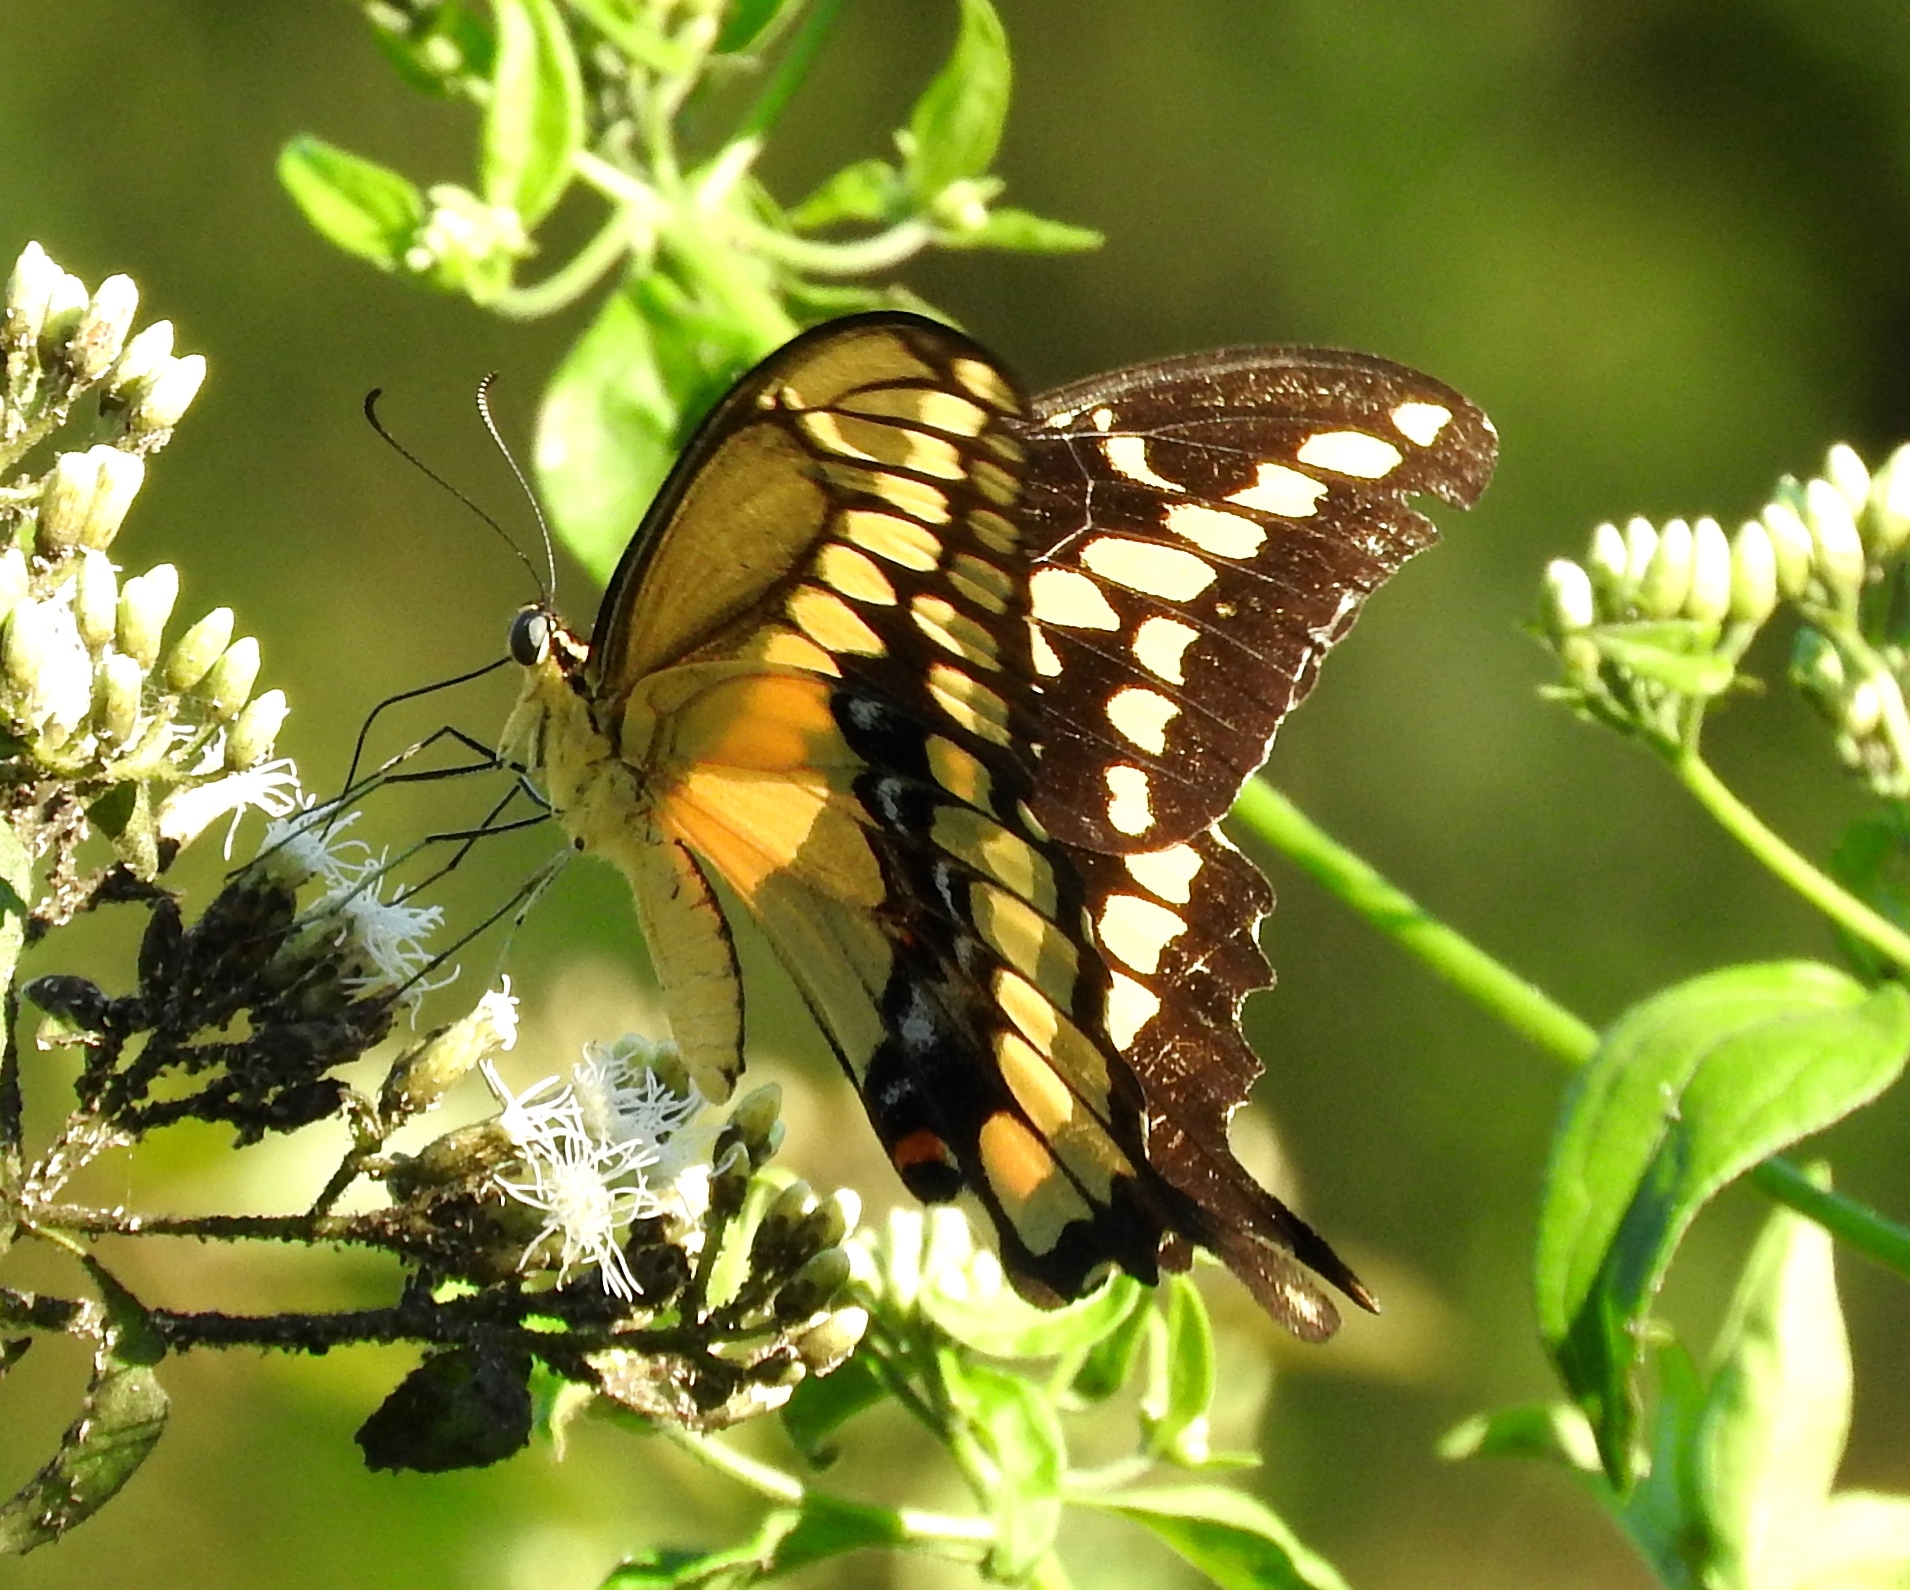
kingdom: Animalia
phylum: Arthropoda
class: Insecta
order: Lepidoptera
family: Papilionidae
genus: Papilio
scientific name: Papilio rumiko
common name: Western giant swallowtail
